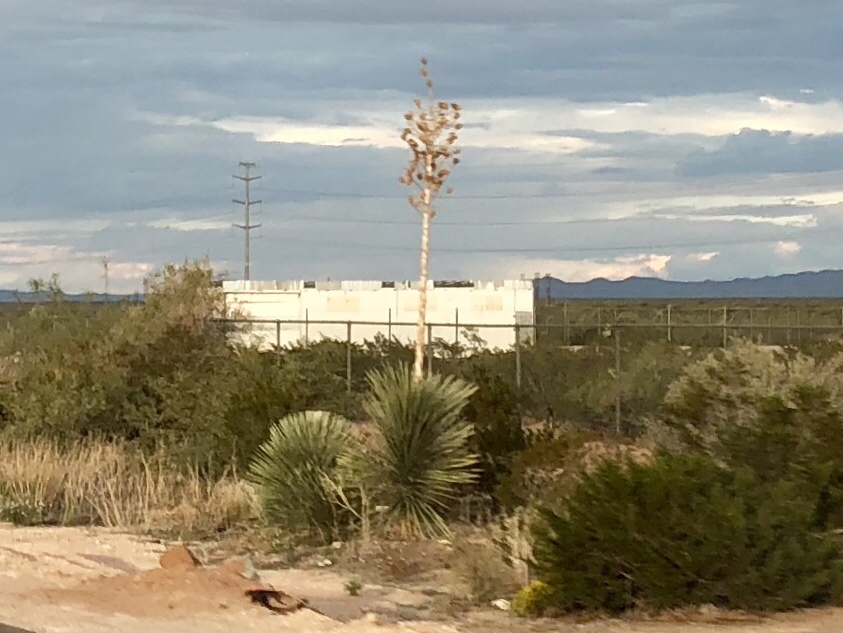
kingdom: Plantae
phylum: Tracheophyta
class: Liliopsida
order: Asparagales
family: Asparagaceae
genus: Yucca
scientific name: Yucca elata
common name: Palmella
